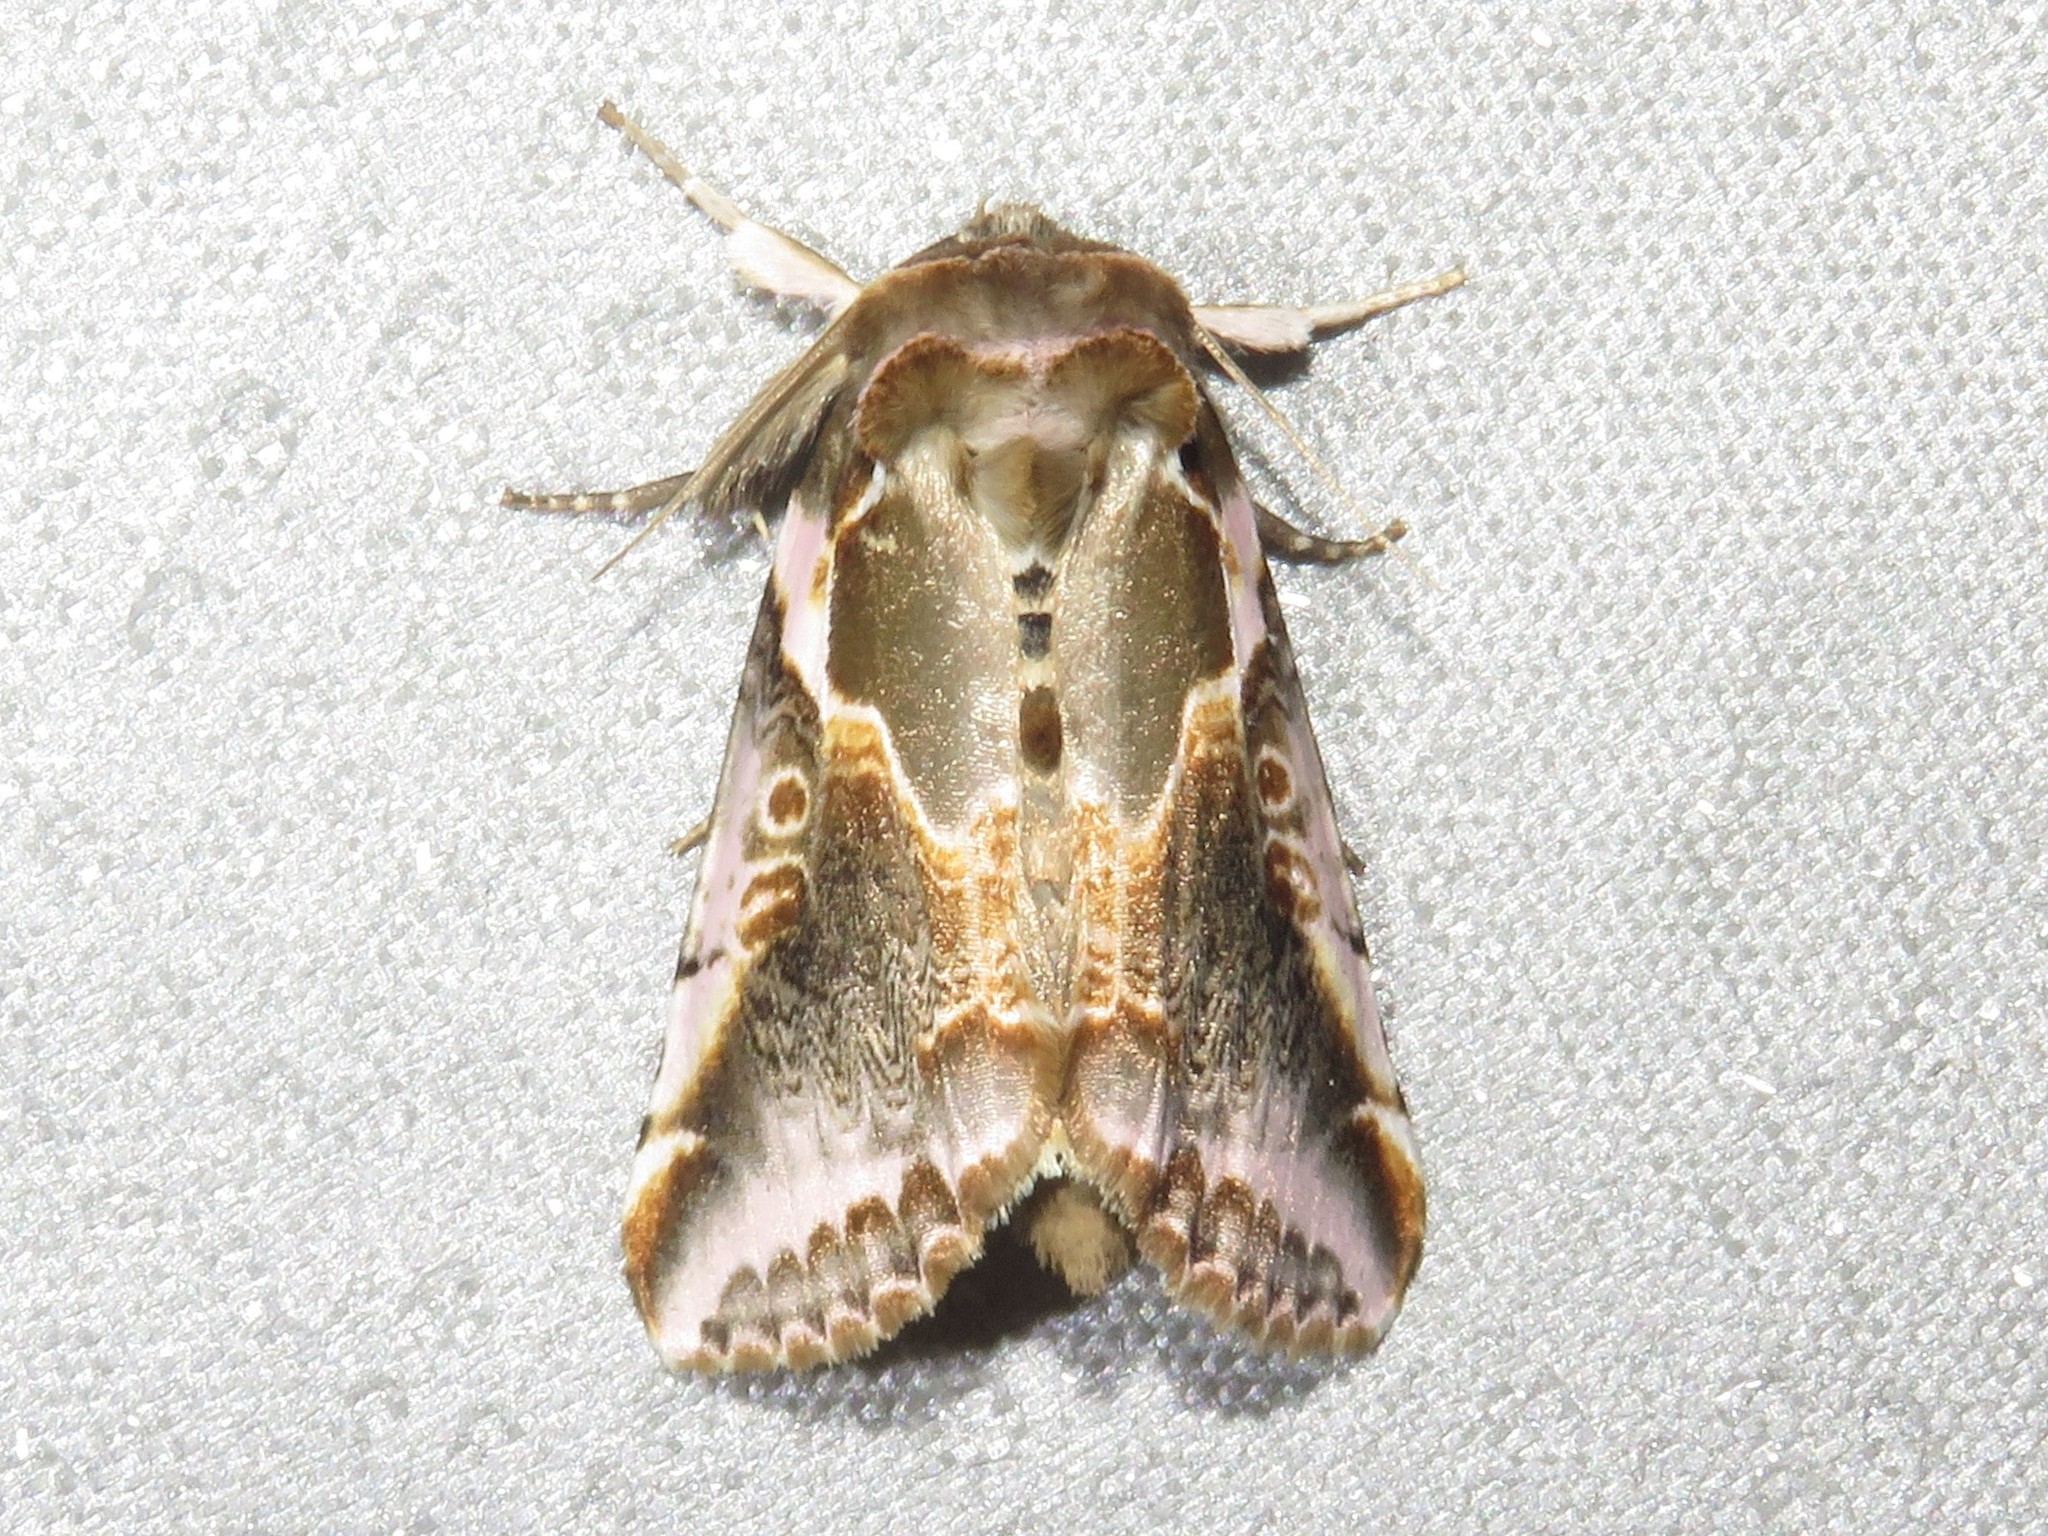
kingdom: Animalia
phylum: Arthropoda
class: Insecta
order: Lepidoptera
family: Drepanidae
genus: Habrosyne
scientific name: Habrosyne gloriosa
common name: Glorious habrosyne moth
